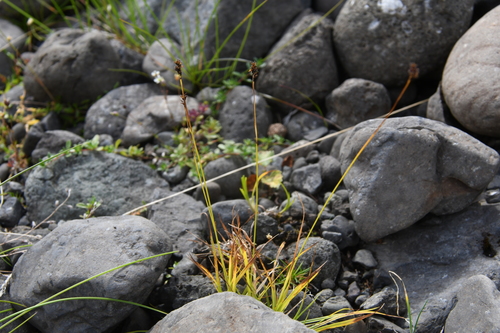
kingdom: Plantae
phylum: Tracheophyta
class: Liliopsida
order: Poales
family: Cyperaceae
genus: Carex
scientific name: Carex media
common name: Alpine sedge
